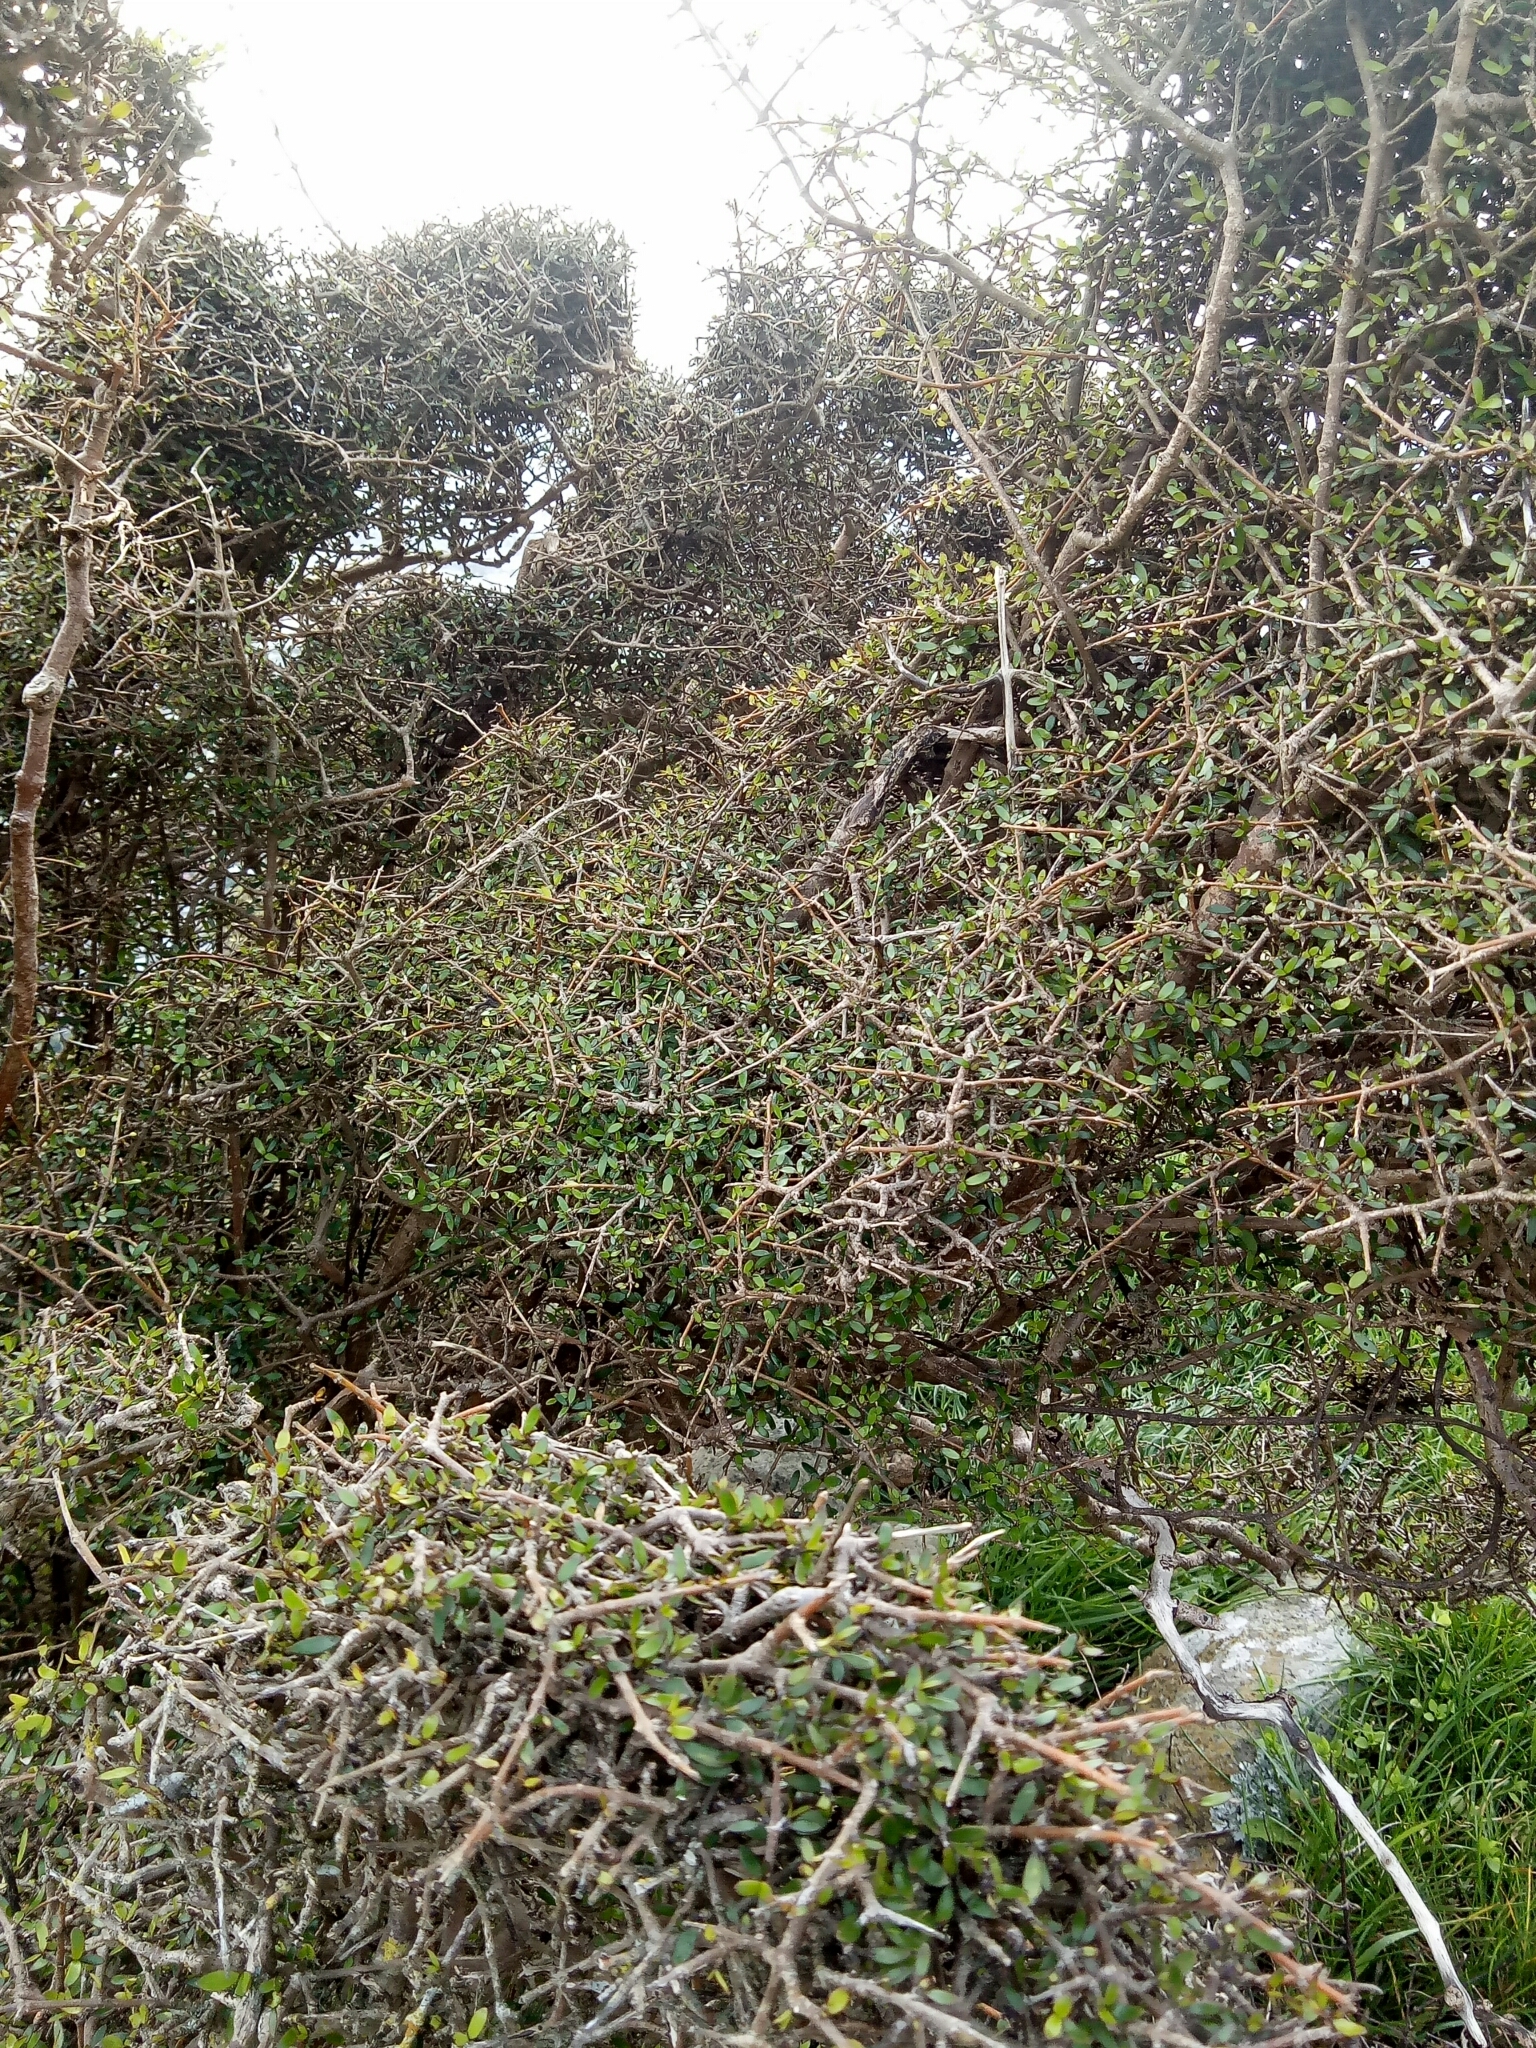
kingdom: Plantae
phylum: Tracheophyta
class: Magnoliopsida
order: Gentianales
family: Rubiaceae
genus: Coprosma
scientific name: Coprosma propinqua
